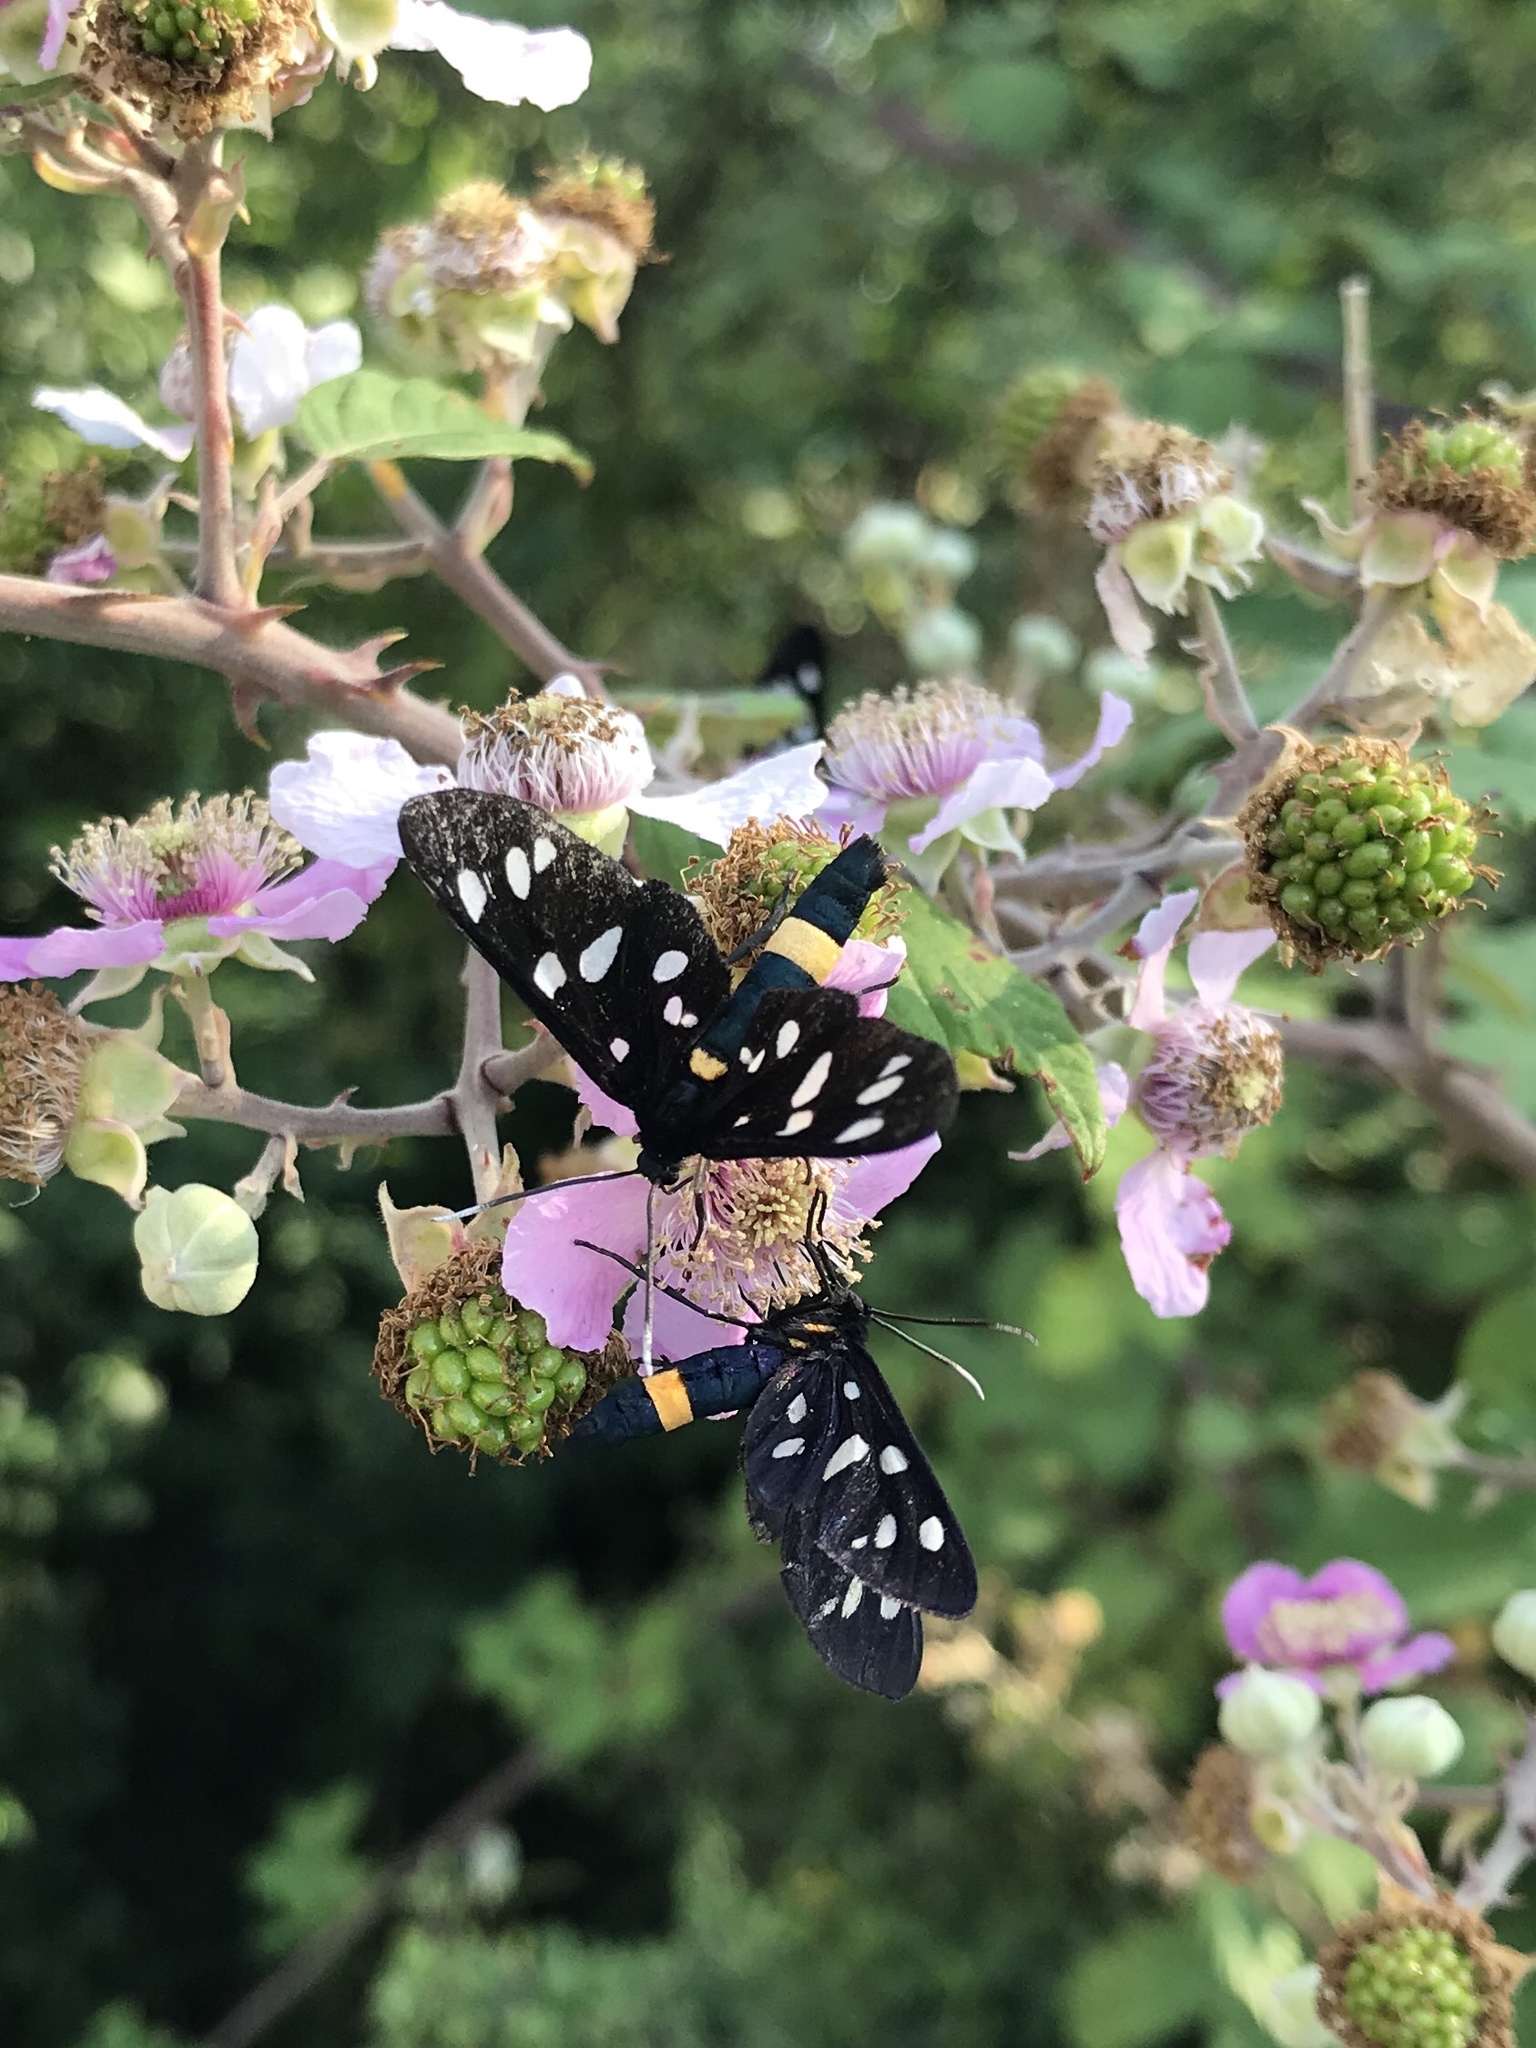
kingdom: Animalia
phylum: Arthropoda
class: Insecta
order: Lepidoptera
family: Erebidae
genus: Amata
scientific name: Amata phegea
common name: Nine-spotted
